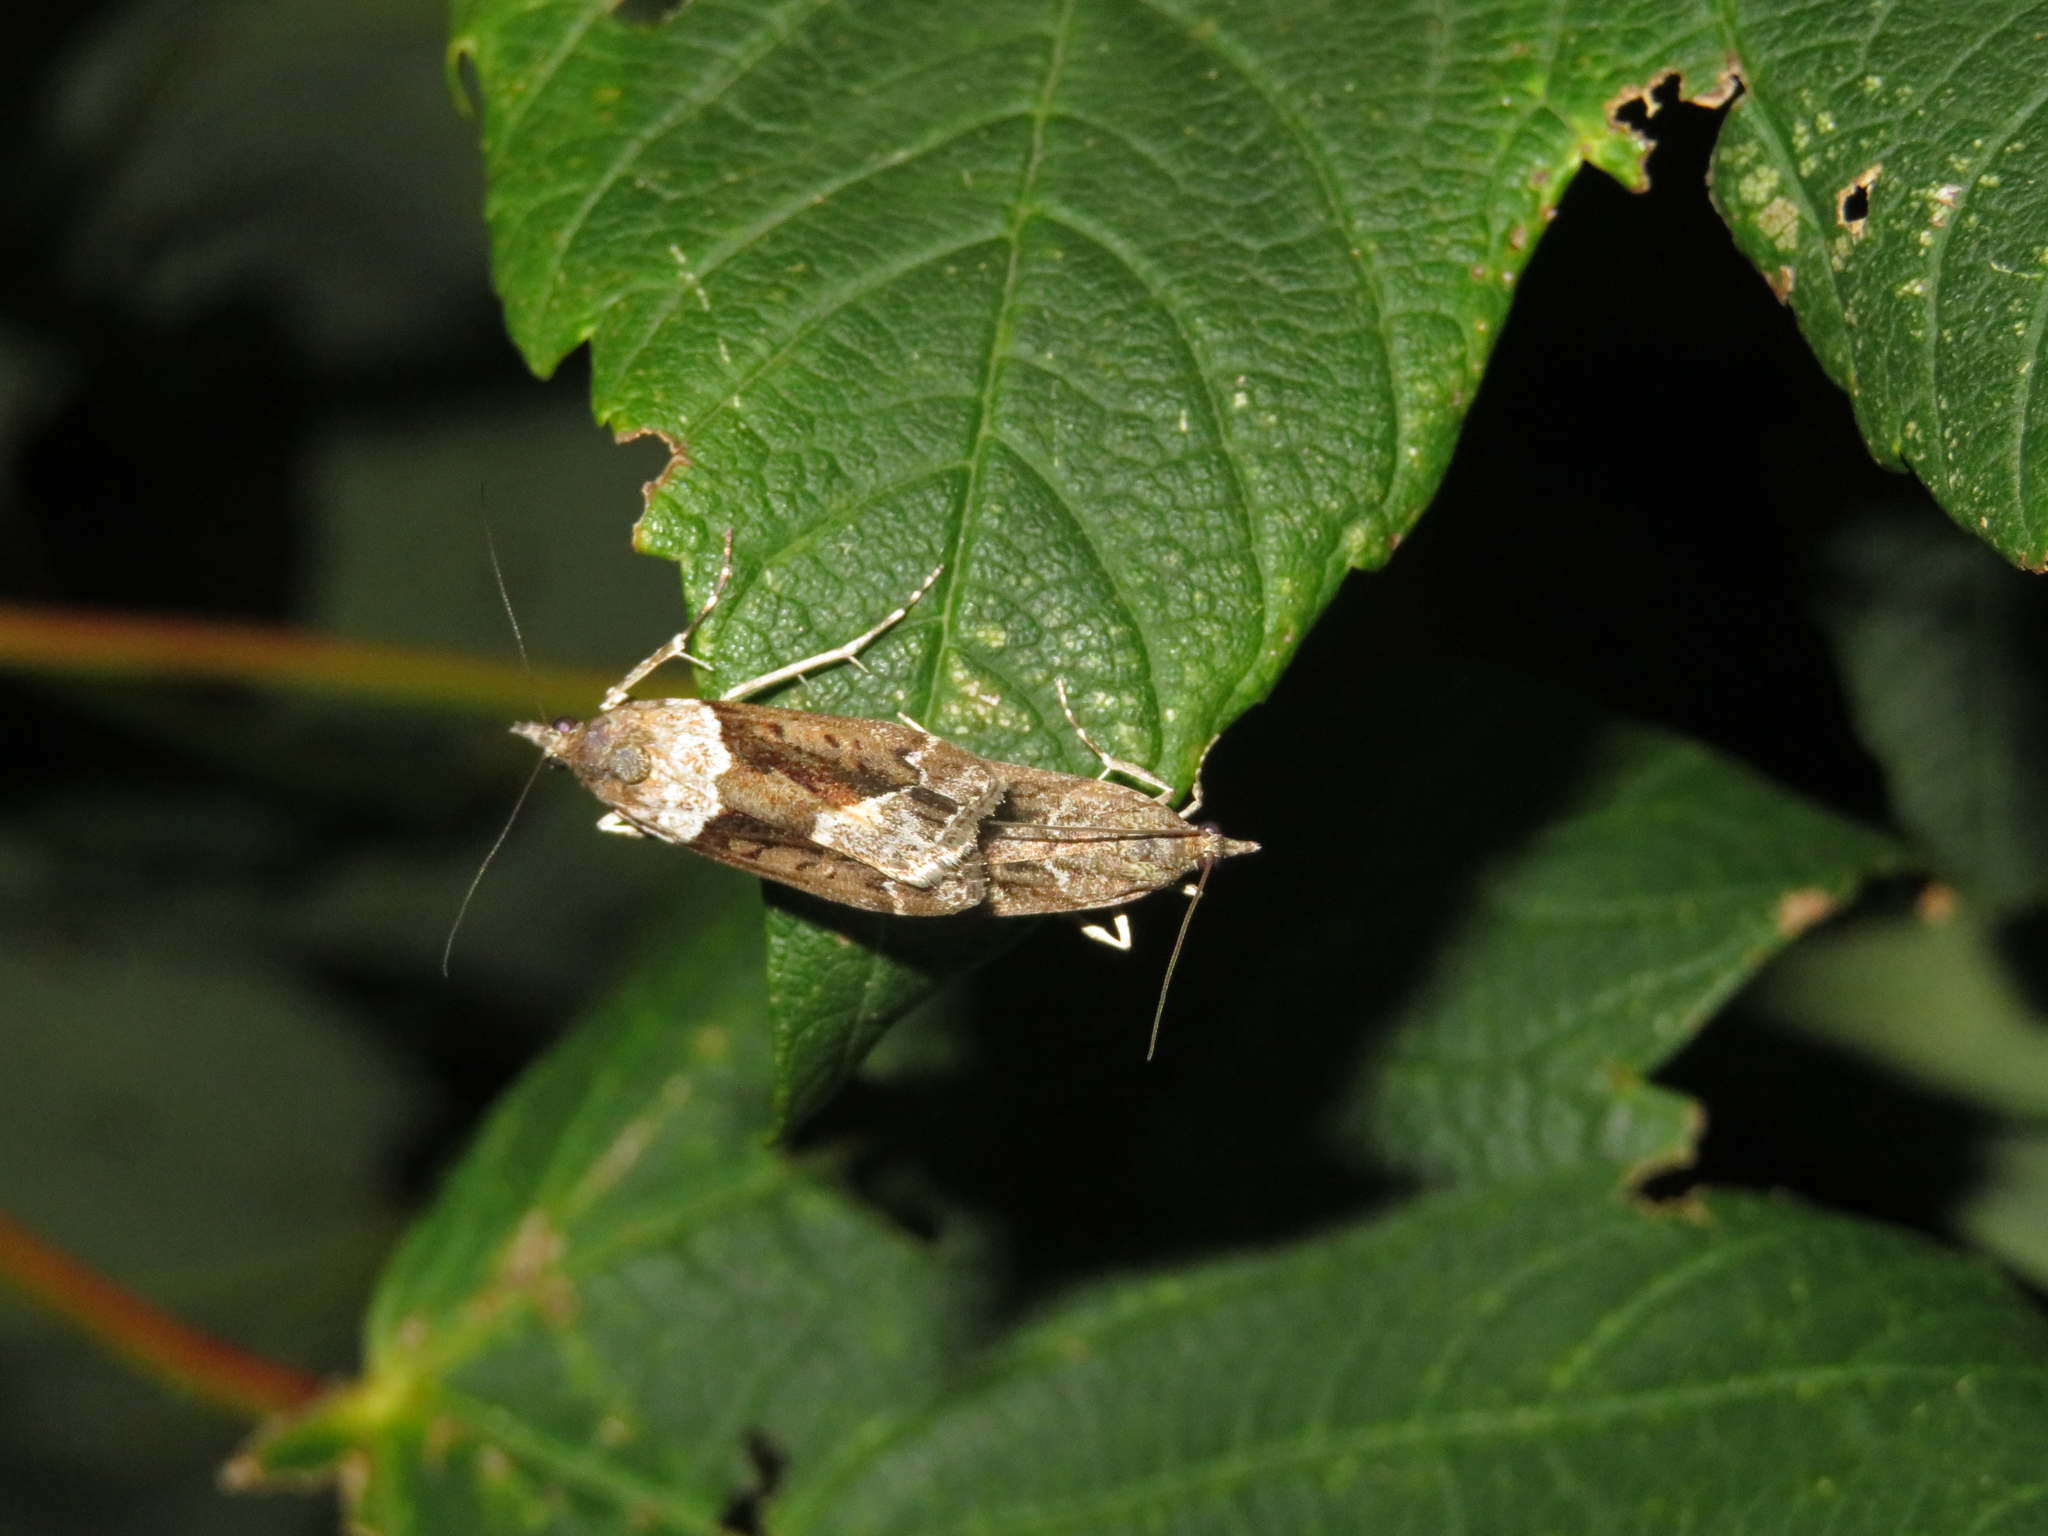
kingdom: Animalia
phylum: Arthropoda
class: Insecta
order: Lepidoptera
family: Crambidae
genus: Eudonia
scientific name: Eudonia submarginalis
